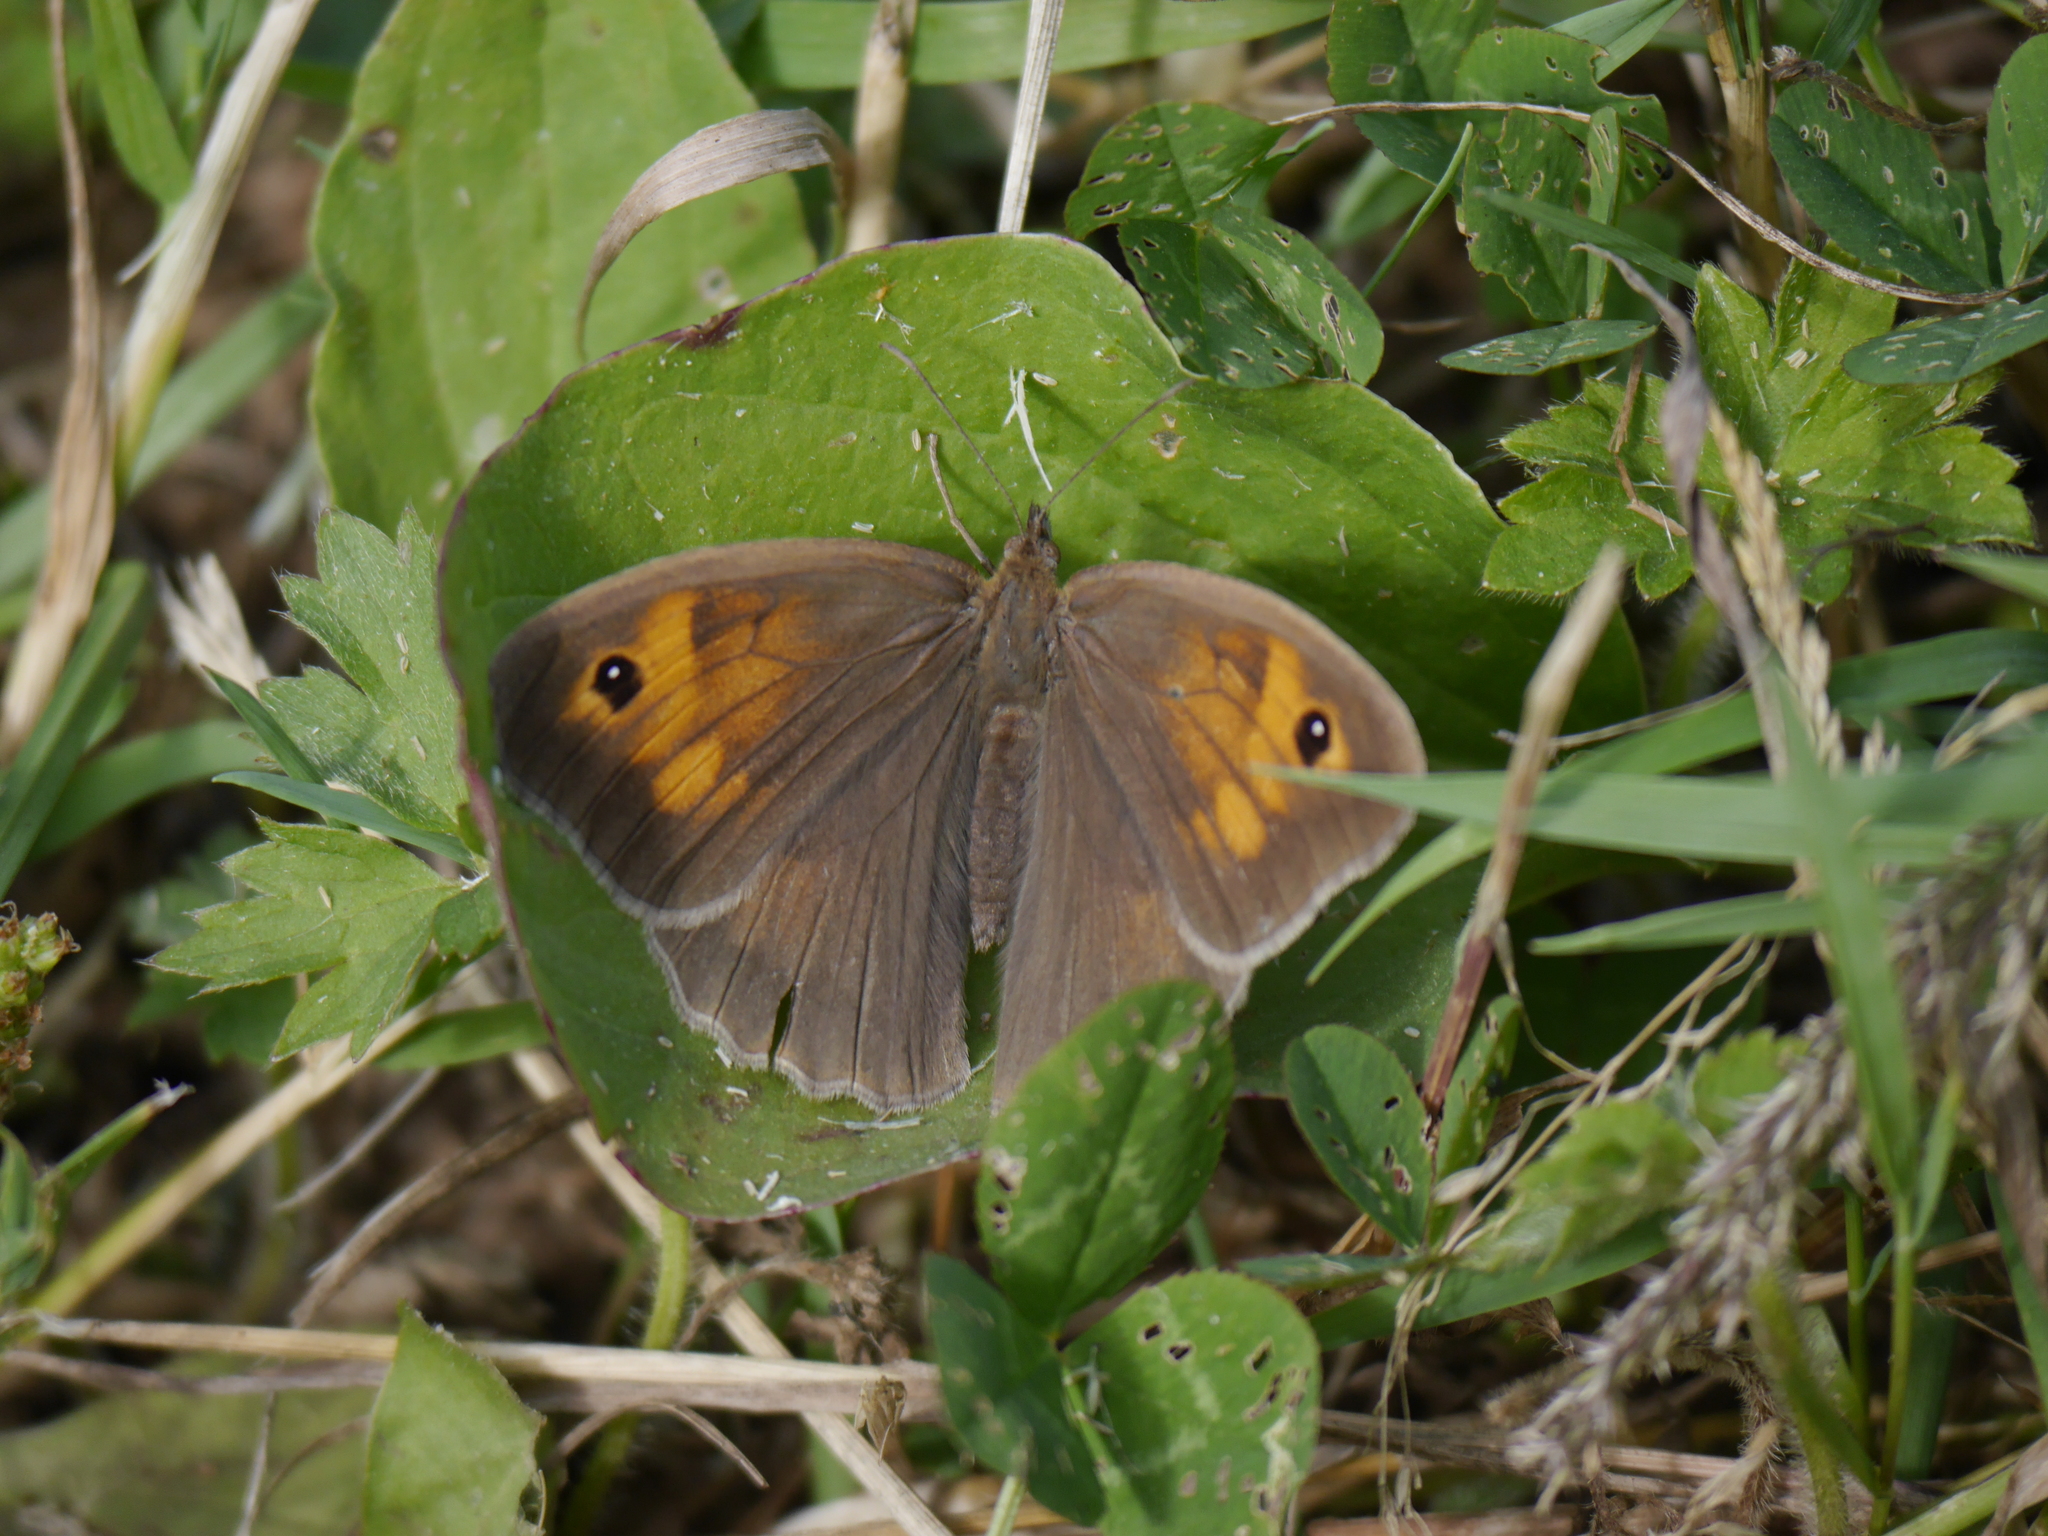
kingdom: Animalia
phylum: Arthropoda
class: Insecta
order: Lepidoptera
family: Nymphalidae
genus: Maniola
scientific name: Maniola jurtina
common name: Meadow brown
